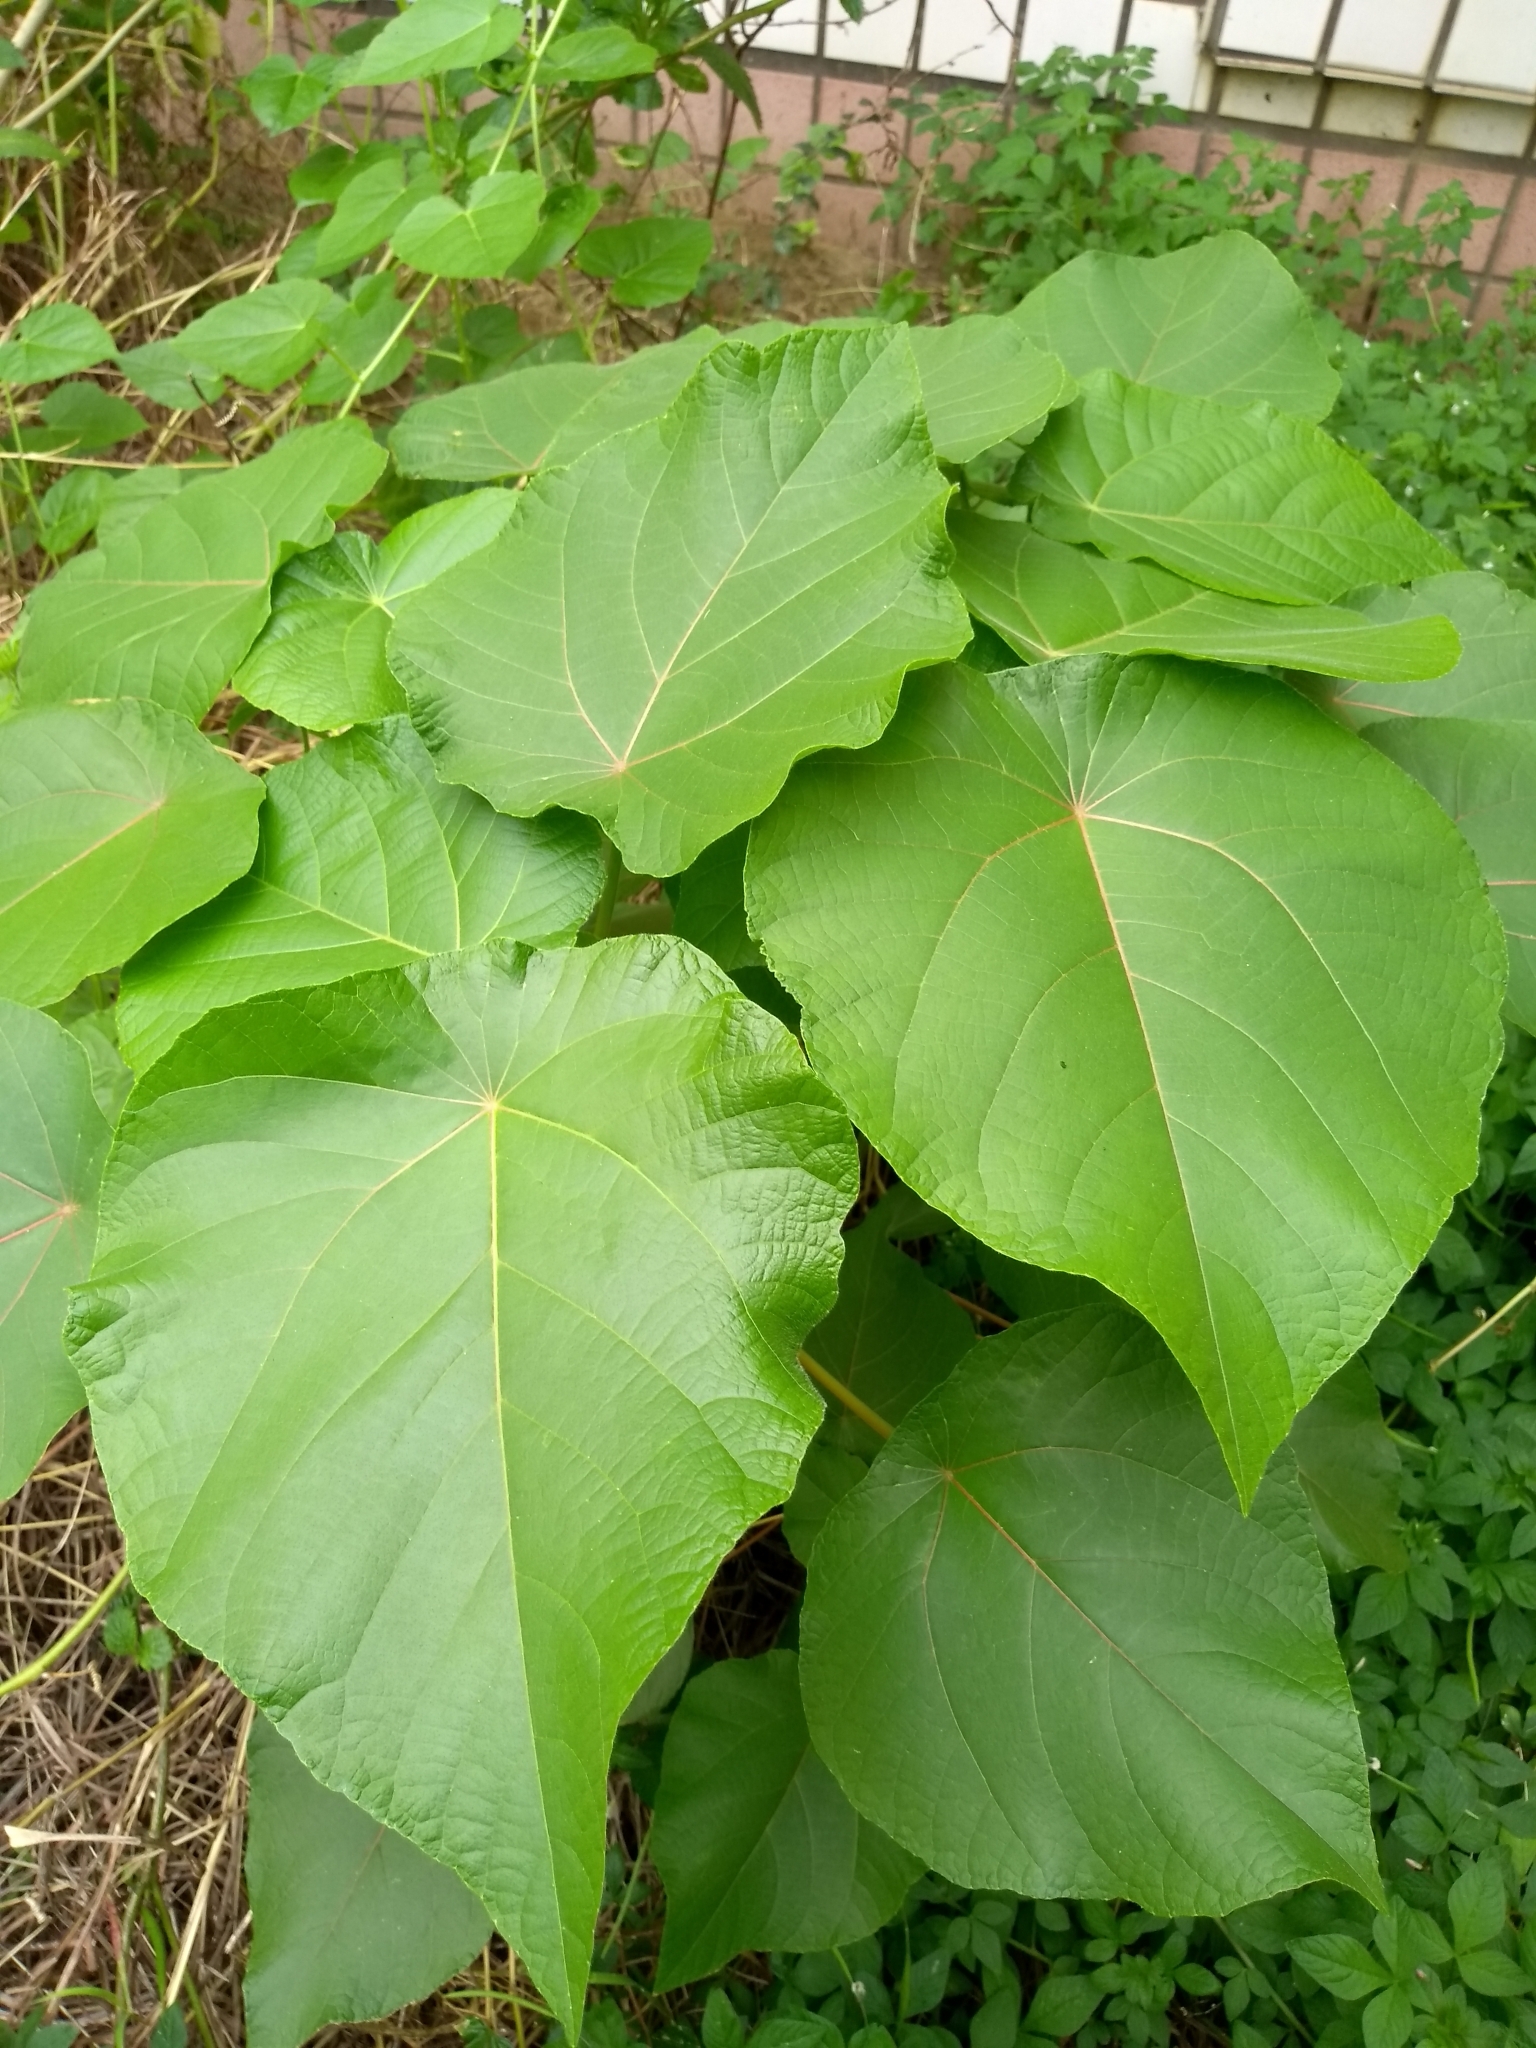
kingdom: Plantae
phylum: Tracheophyta
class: Magnoliopsida
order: Malpighiales
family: Euphorbiaceae
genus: Macaranga
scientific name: Macaranga tanarius
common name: Parasol leaf tree
